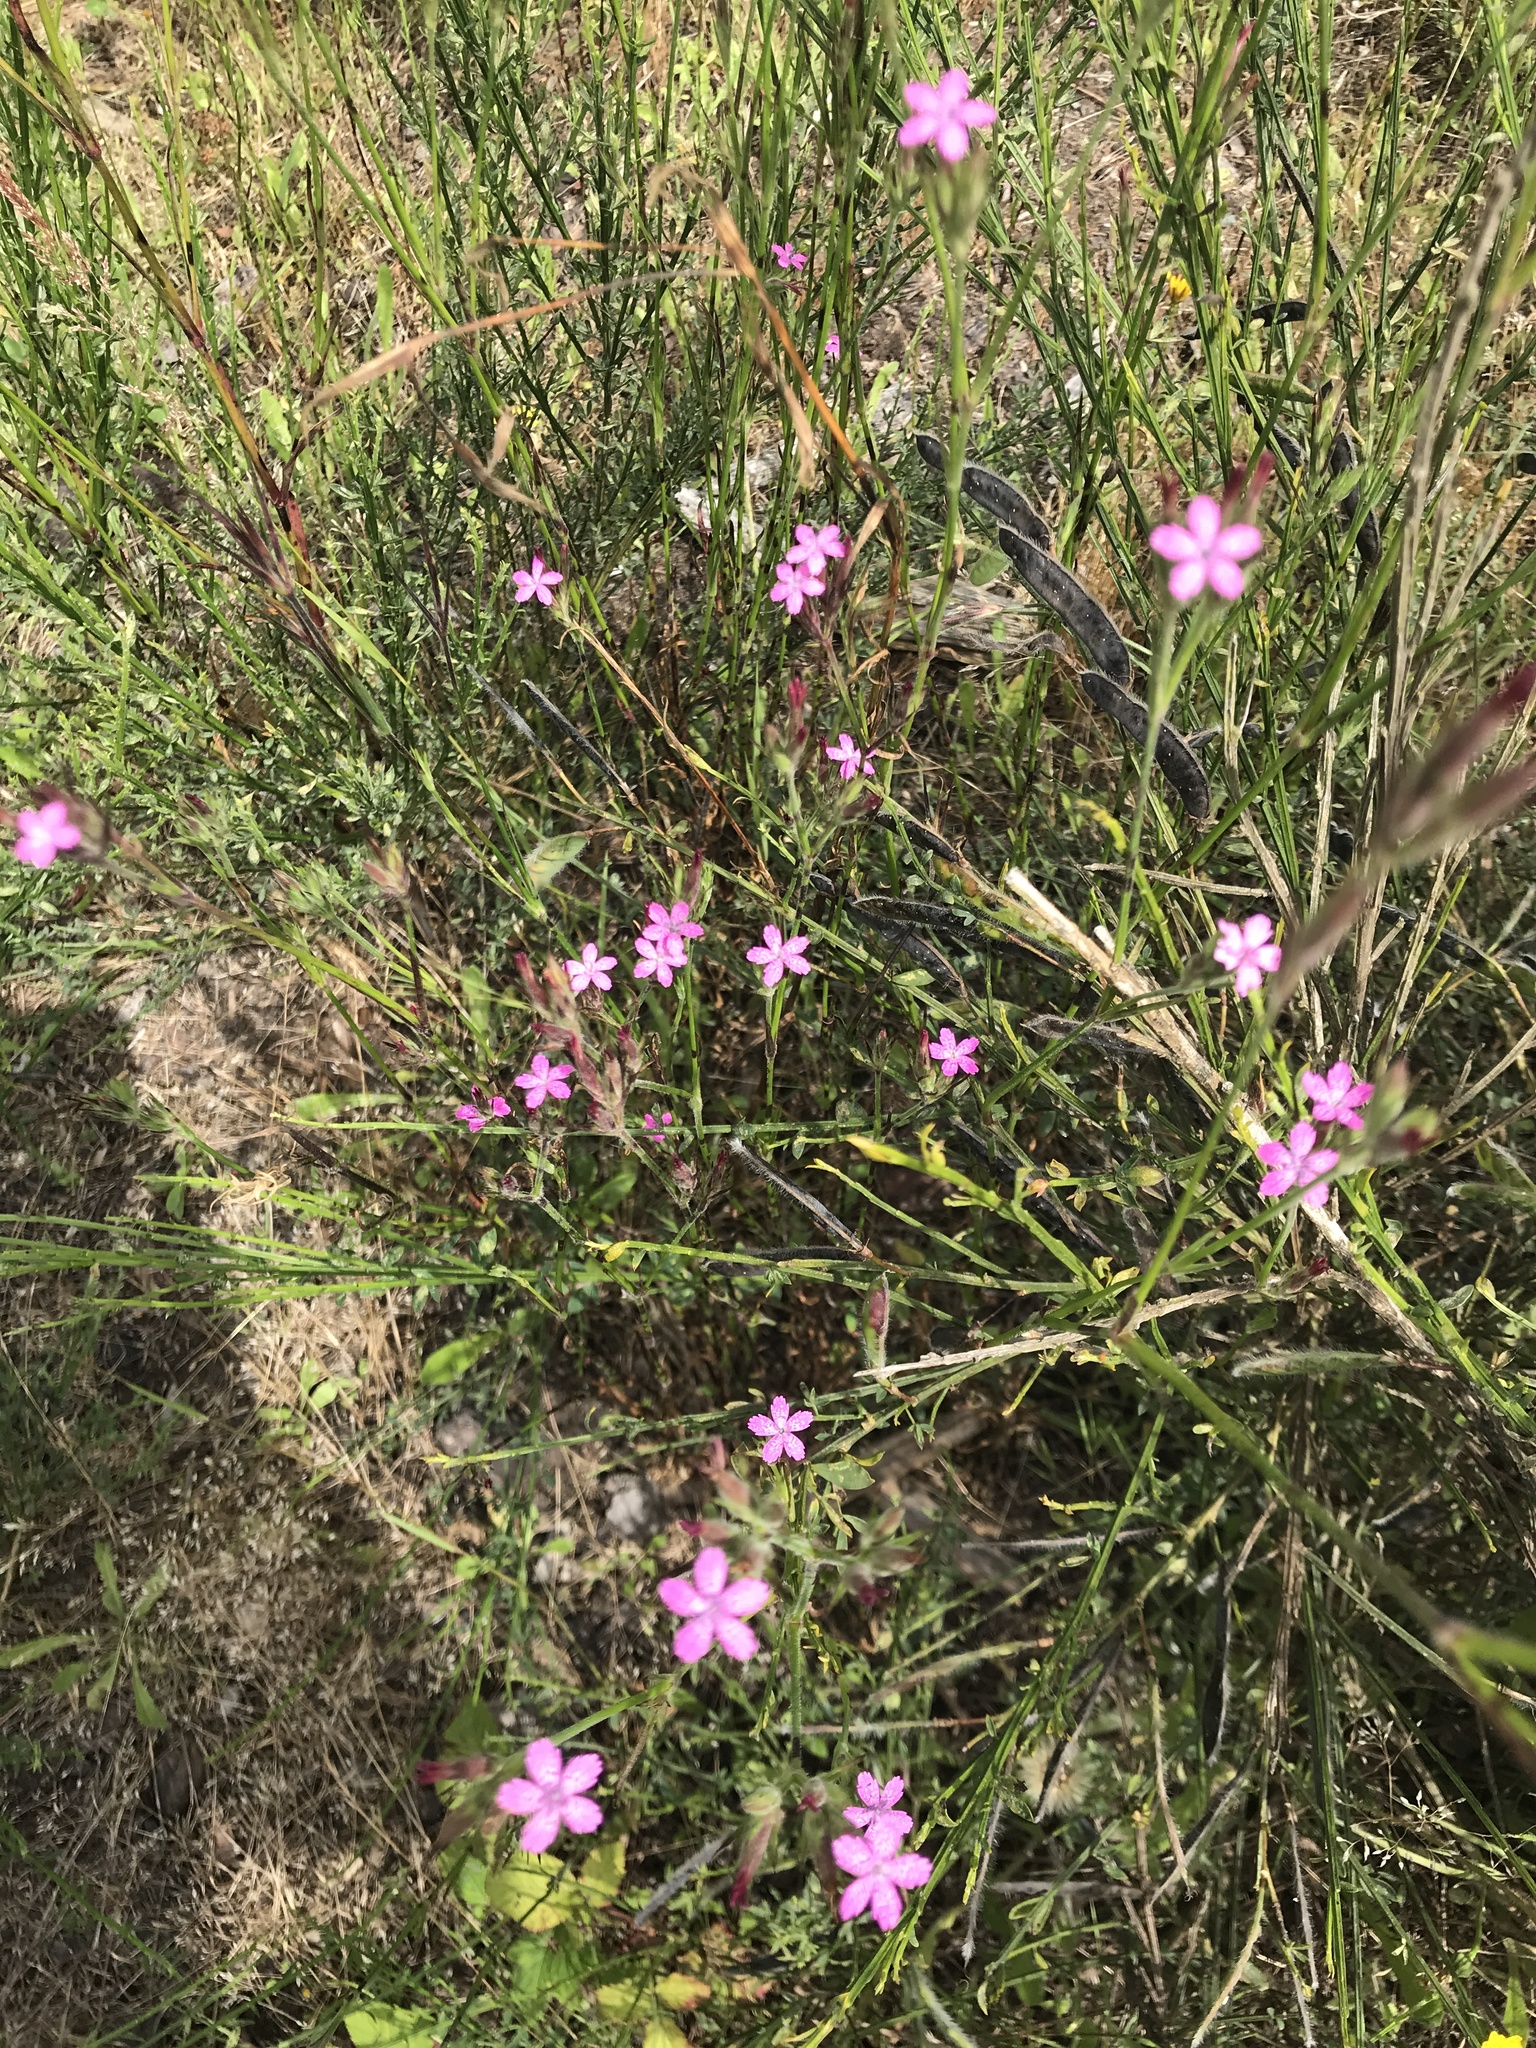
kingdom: Plantae
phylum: Tracheophyta
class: Magnoliopsida
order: Caryophyllales
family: Caryophyllaceae
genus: Dianthus
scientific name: Dianthus armeria
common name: Deptford pink
